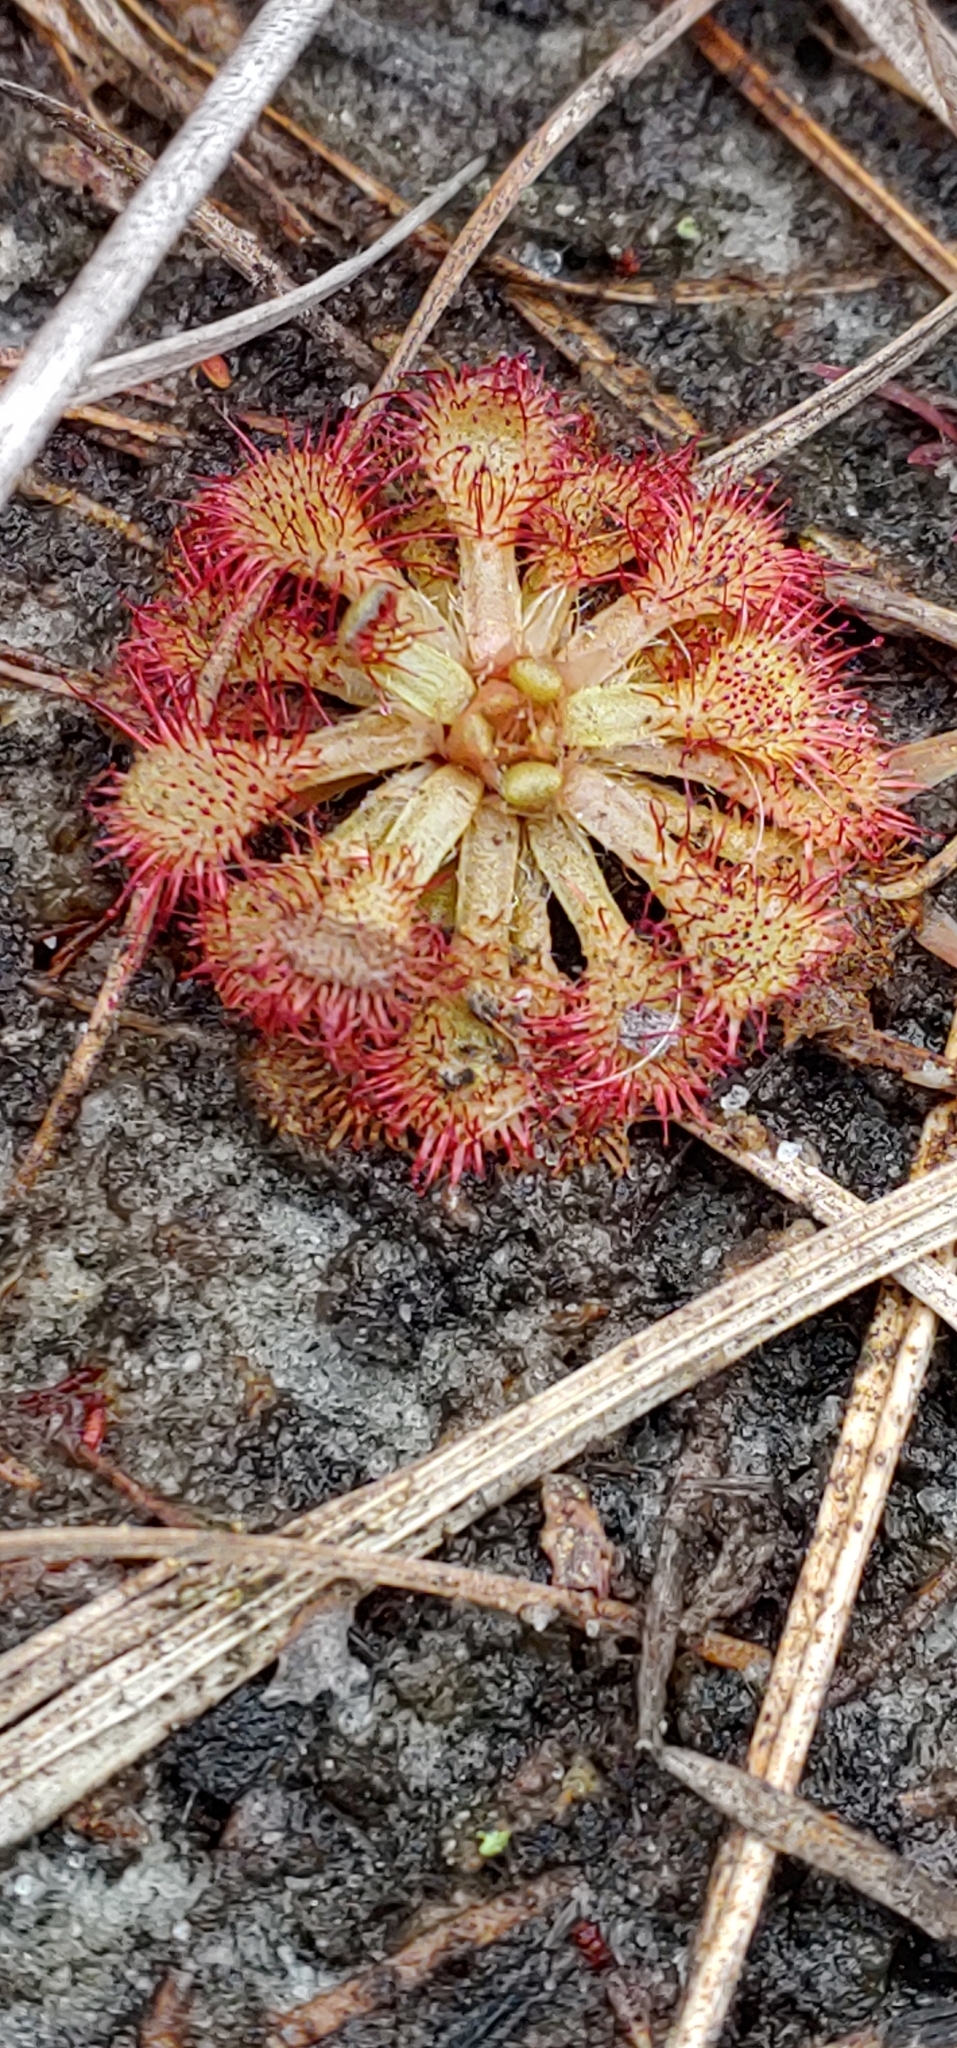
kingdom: Plantae
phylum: Tracheophyta
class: Magnoliopsida
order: Caryophyllales
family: Droseraceae
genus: Drosera
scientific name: Drosera capillaris
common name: Pink sundew
